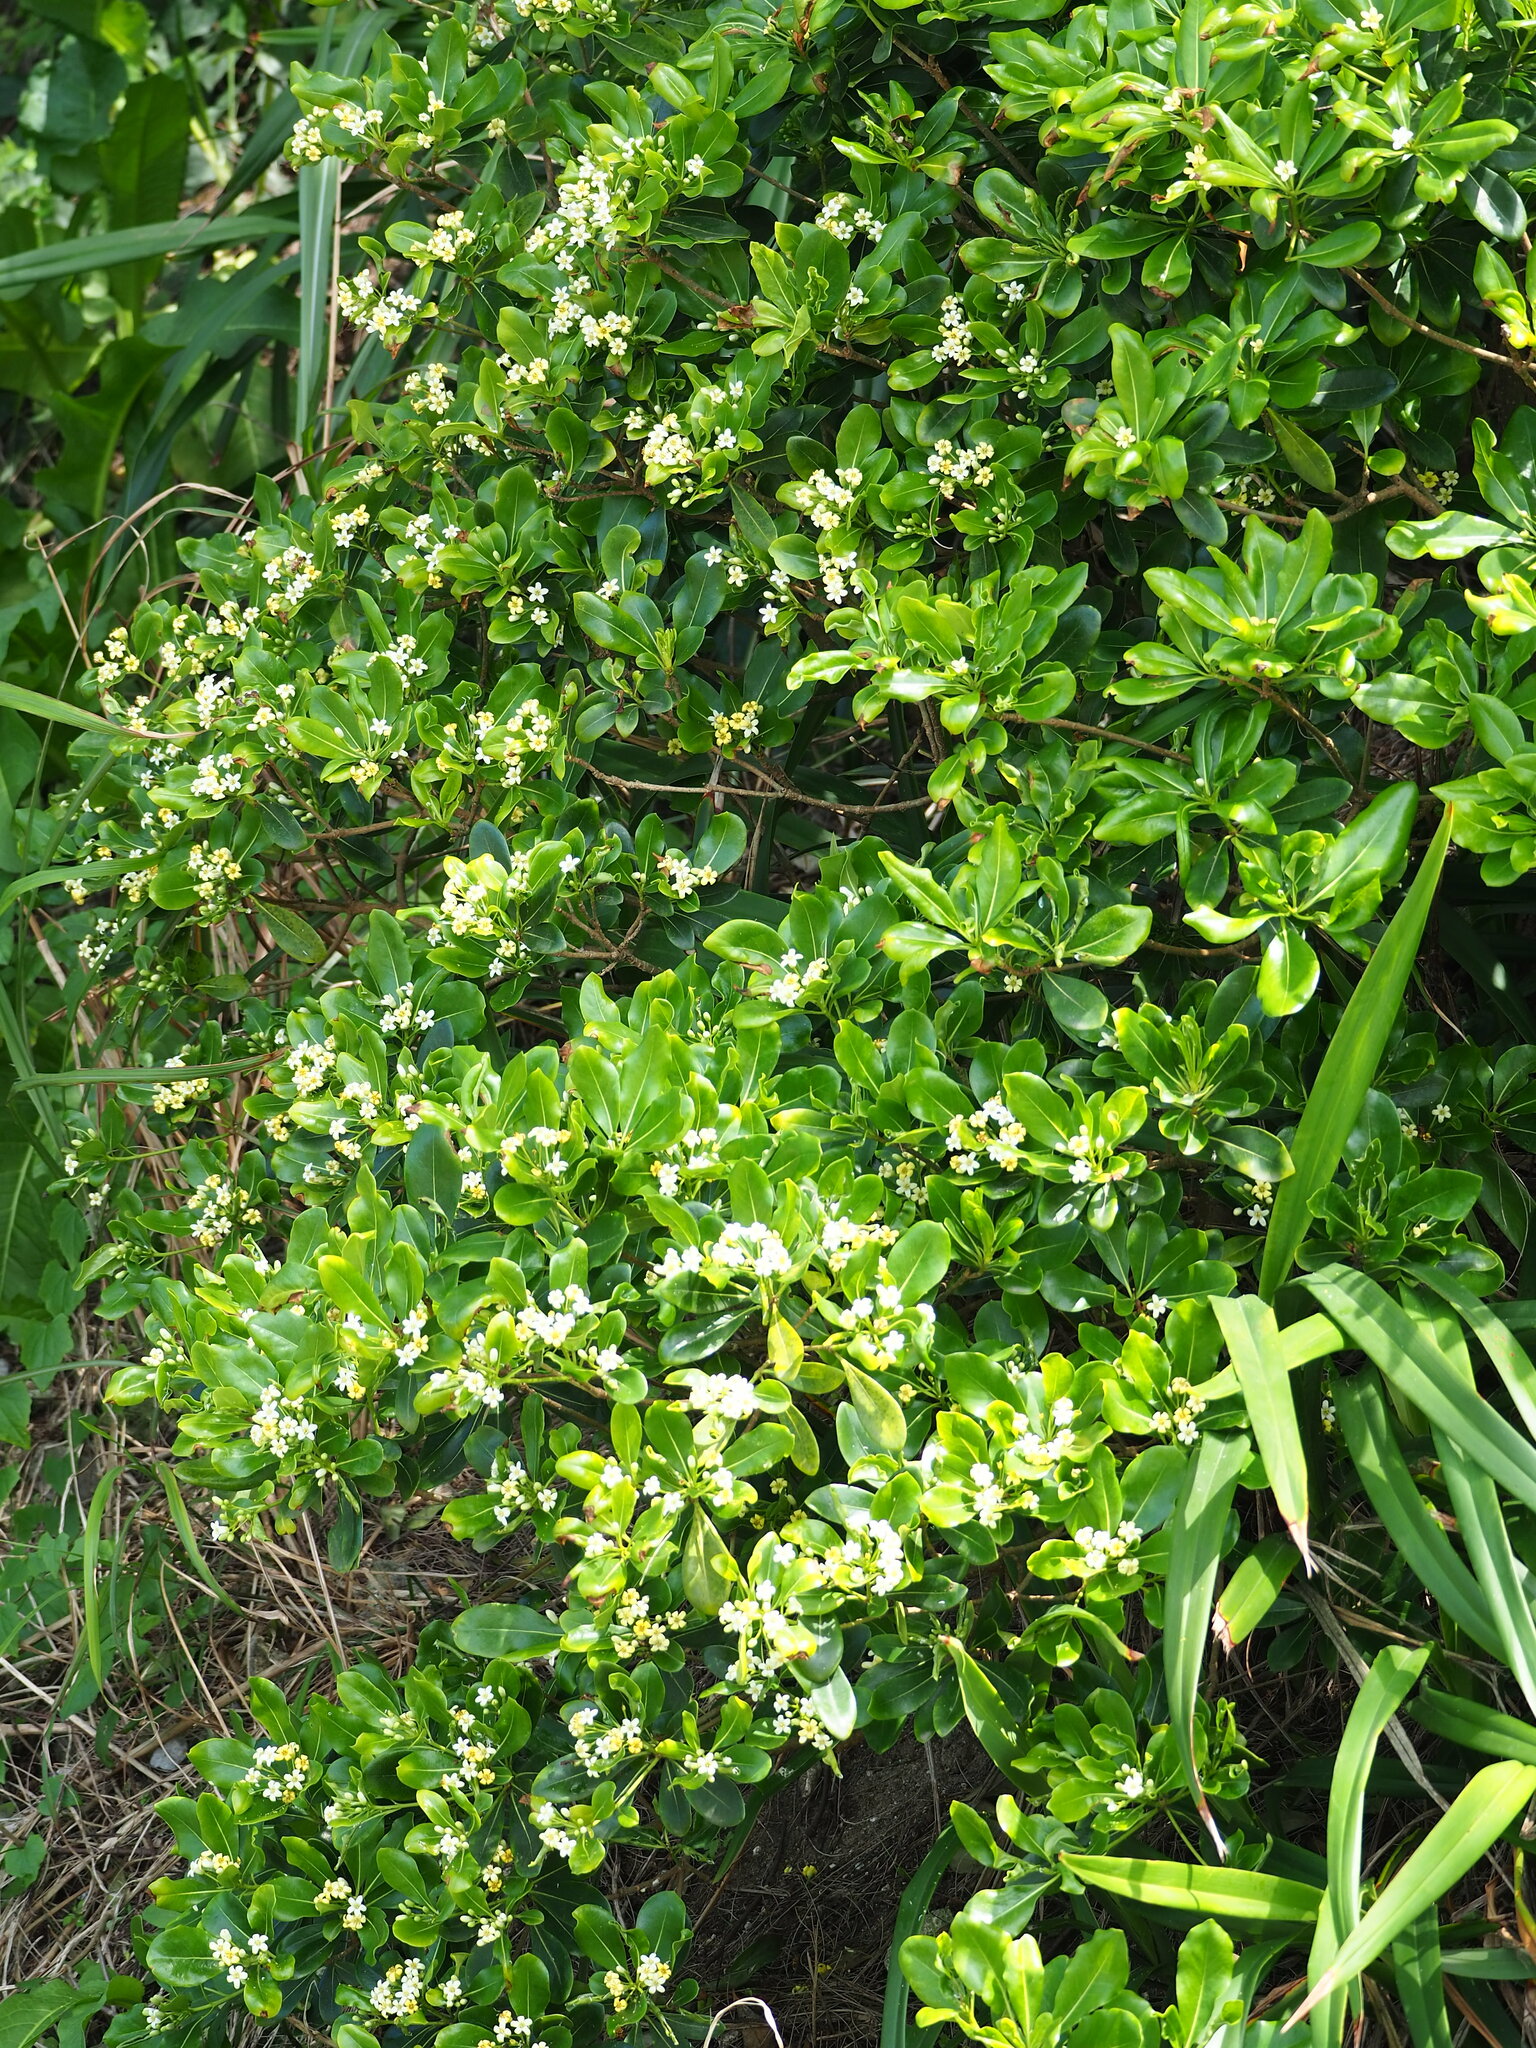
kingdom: Plantae
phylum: Tracheophyta
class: Magnoliopsida
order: Apiales
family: Pittosporaceae
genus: Pittosporum
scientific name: Pittosporum tobira
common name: Japanese cheesewood
